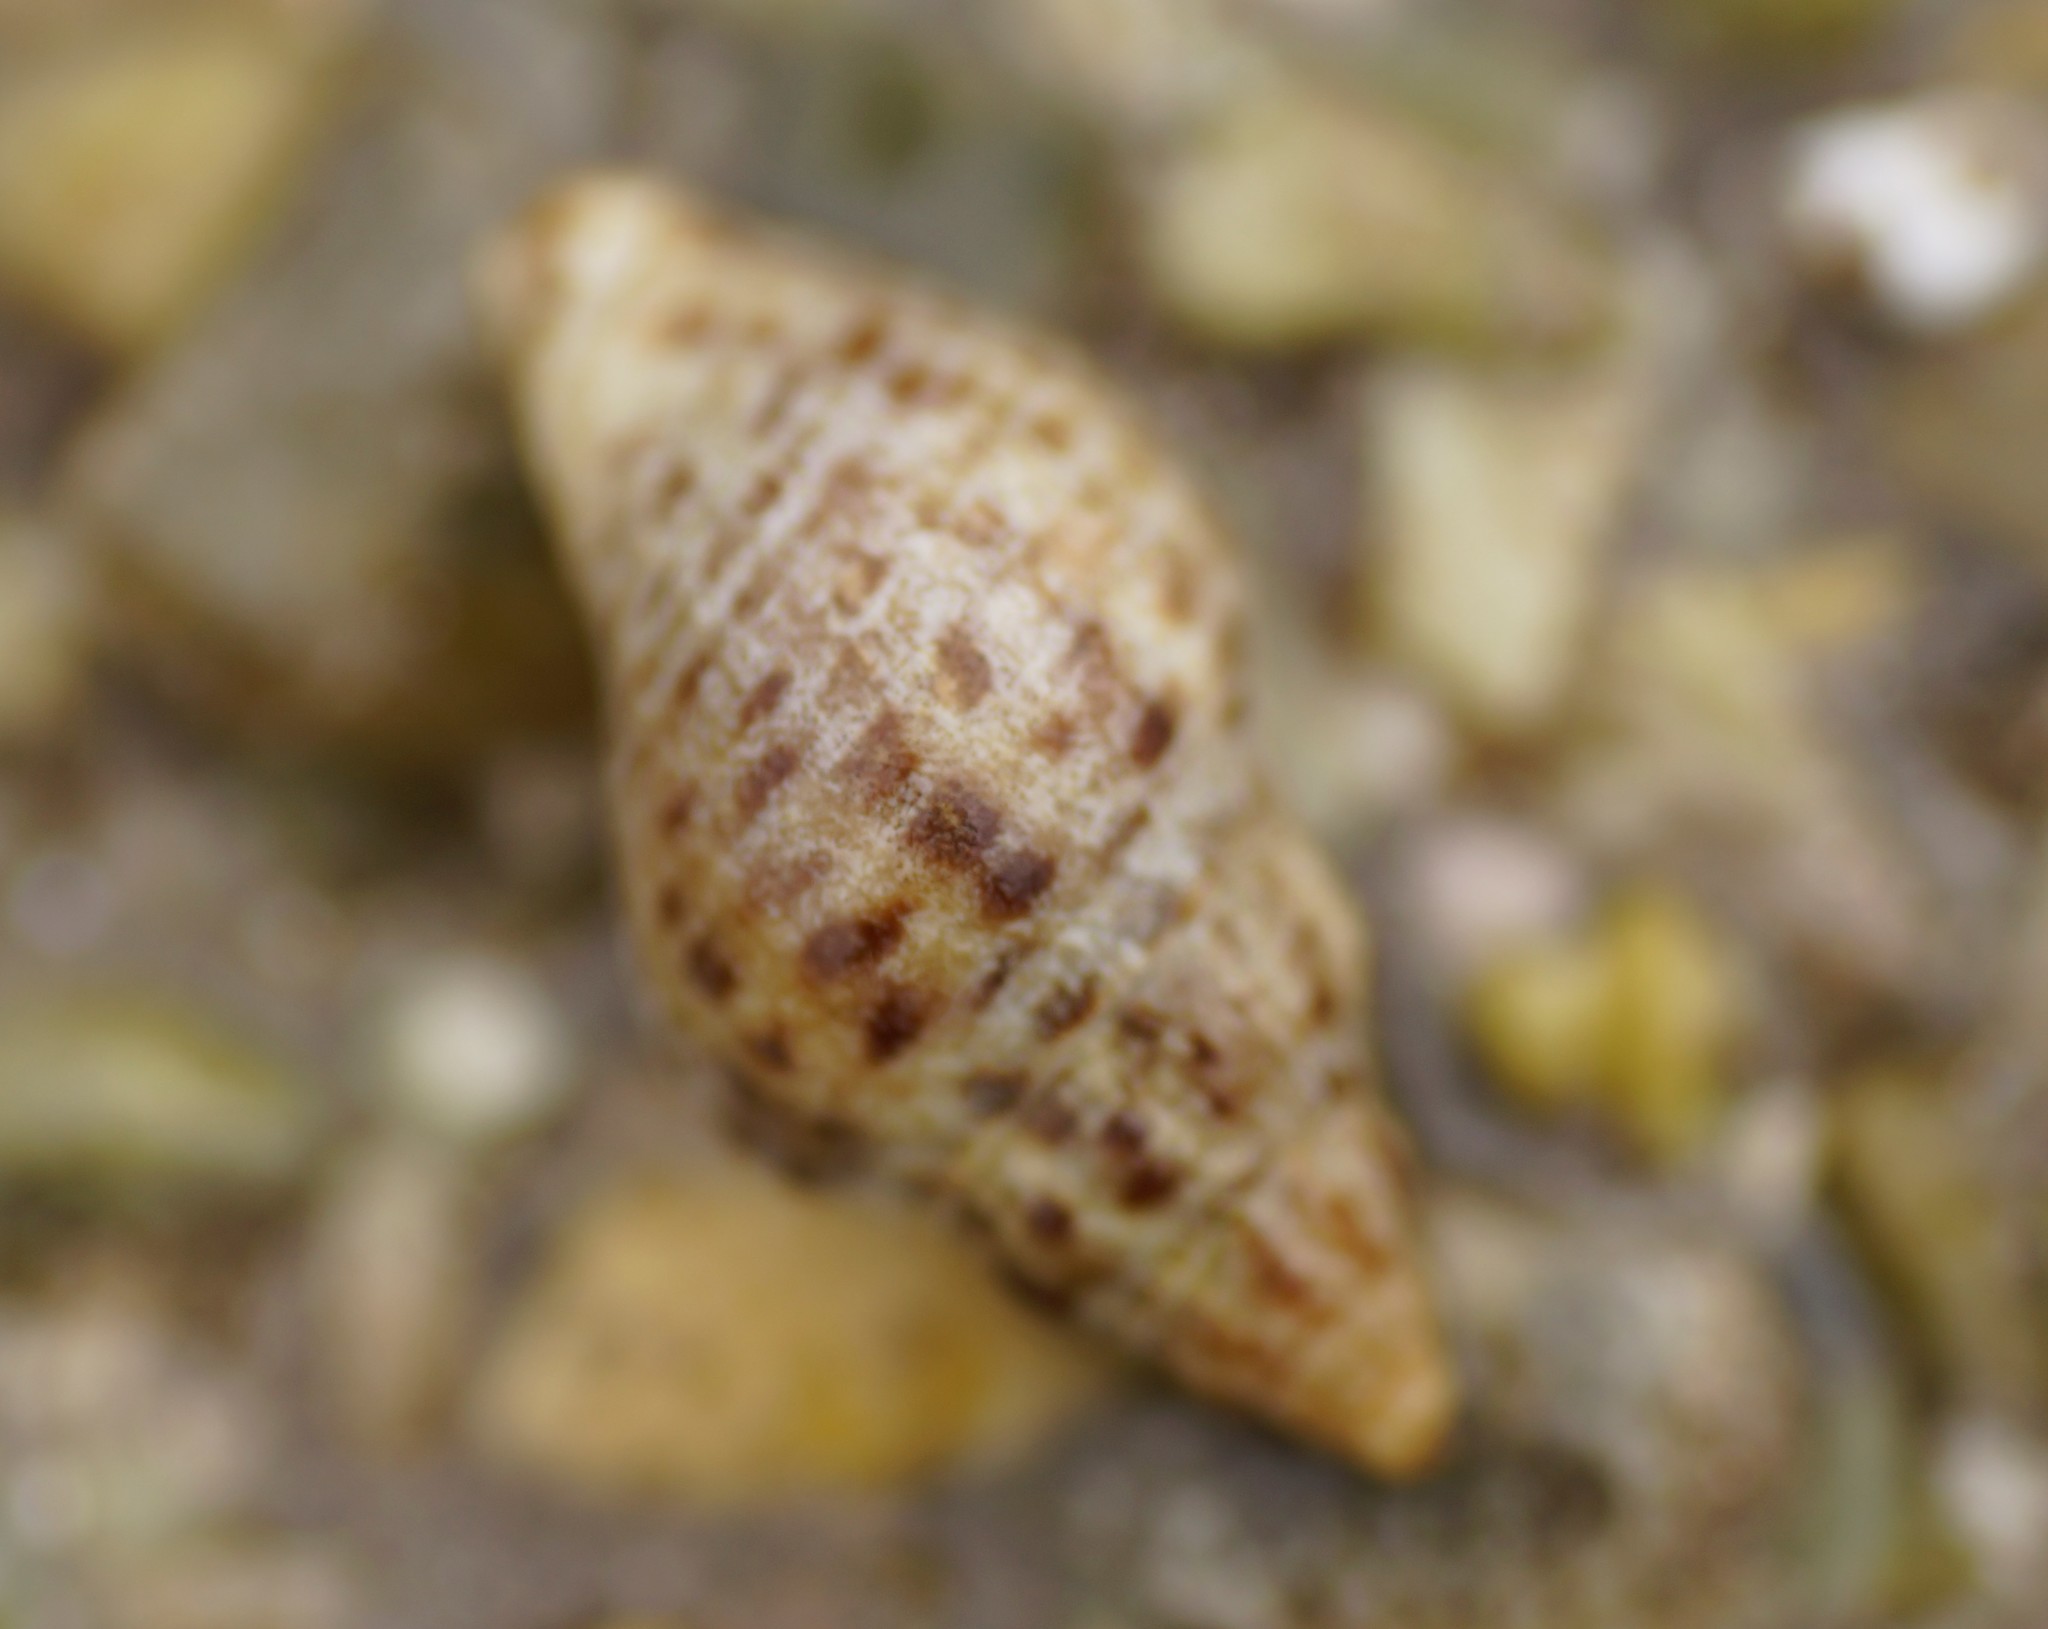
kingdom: Animalia
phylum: Mollusca
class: Gastropoda
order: Neogastropoda
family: Cominellidae
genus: Cominella
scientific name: Cominella lineolata
